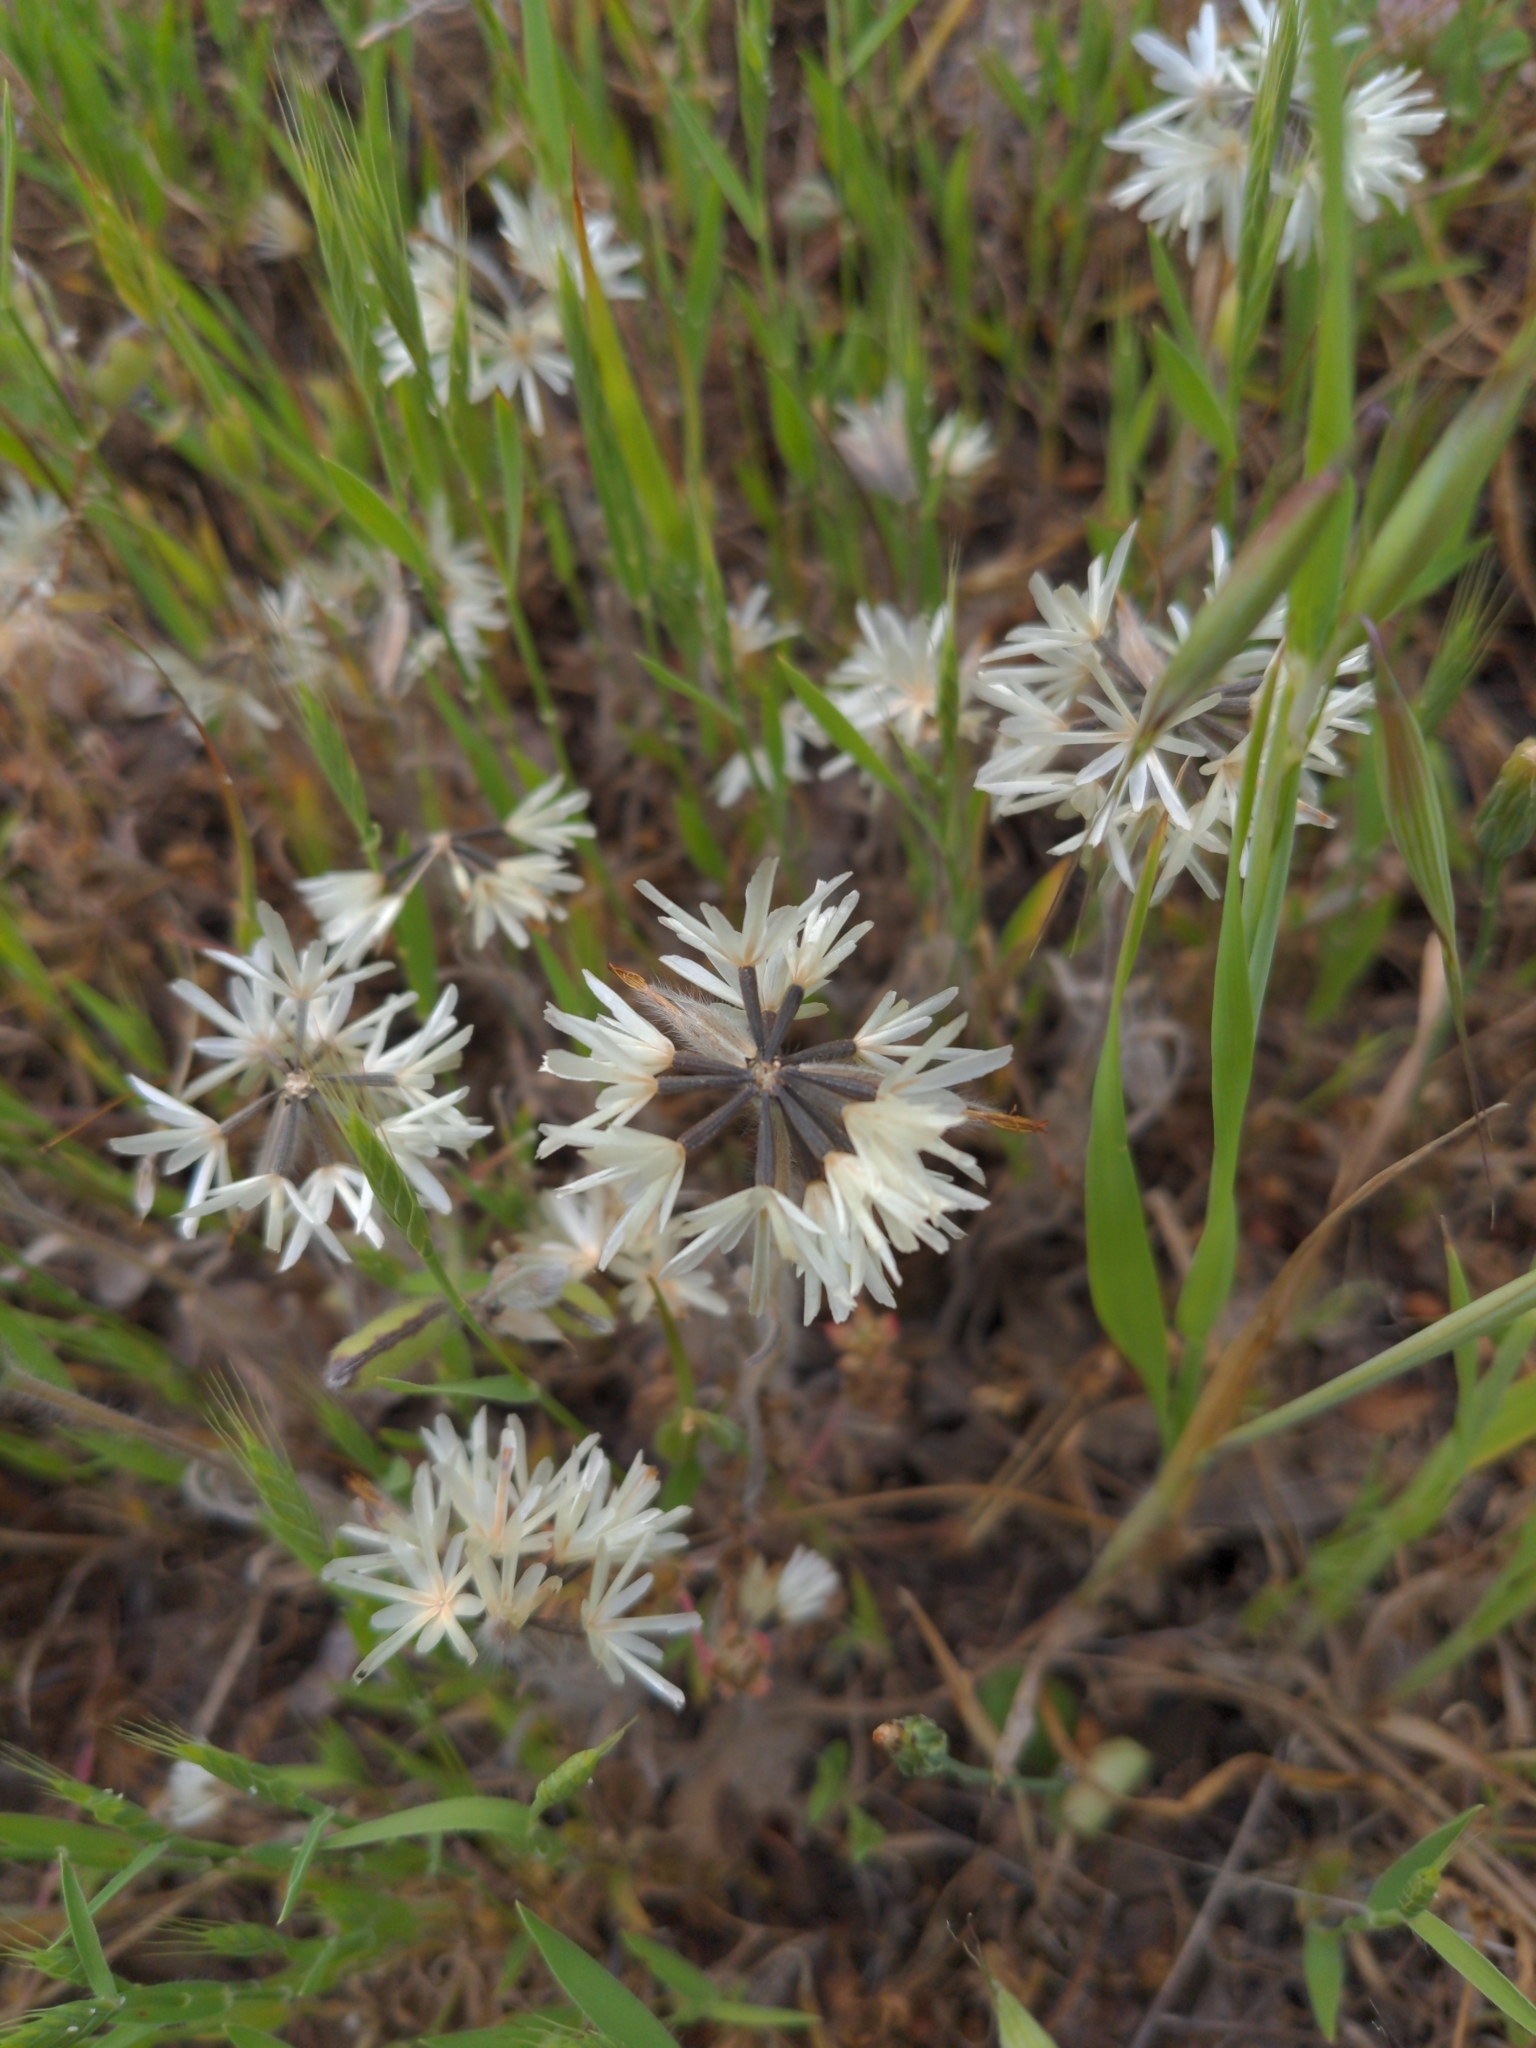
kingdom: Plantae
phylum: Tracheophyta
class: Magnoliopsida
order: Asterales
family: Asteraceae
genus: Achyrachaena
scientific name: Achyrachaena mollis
